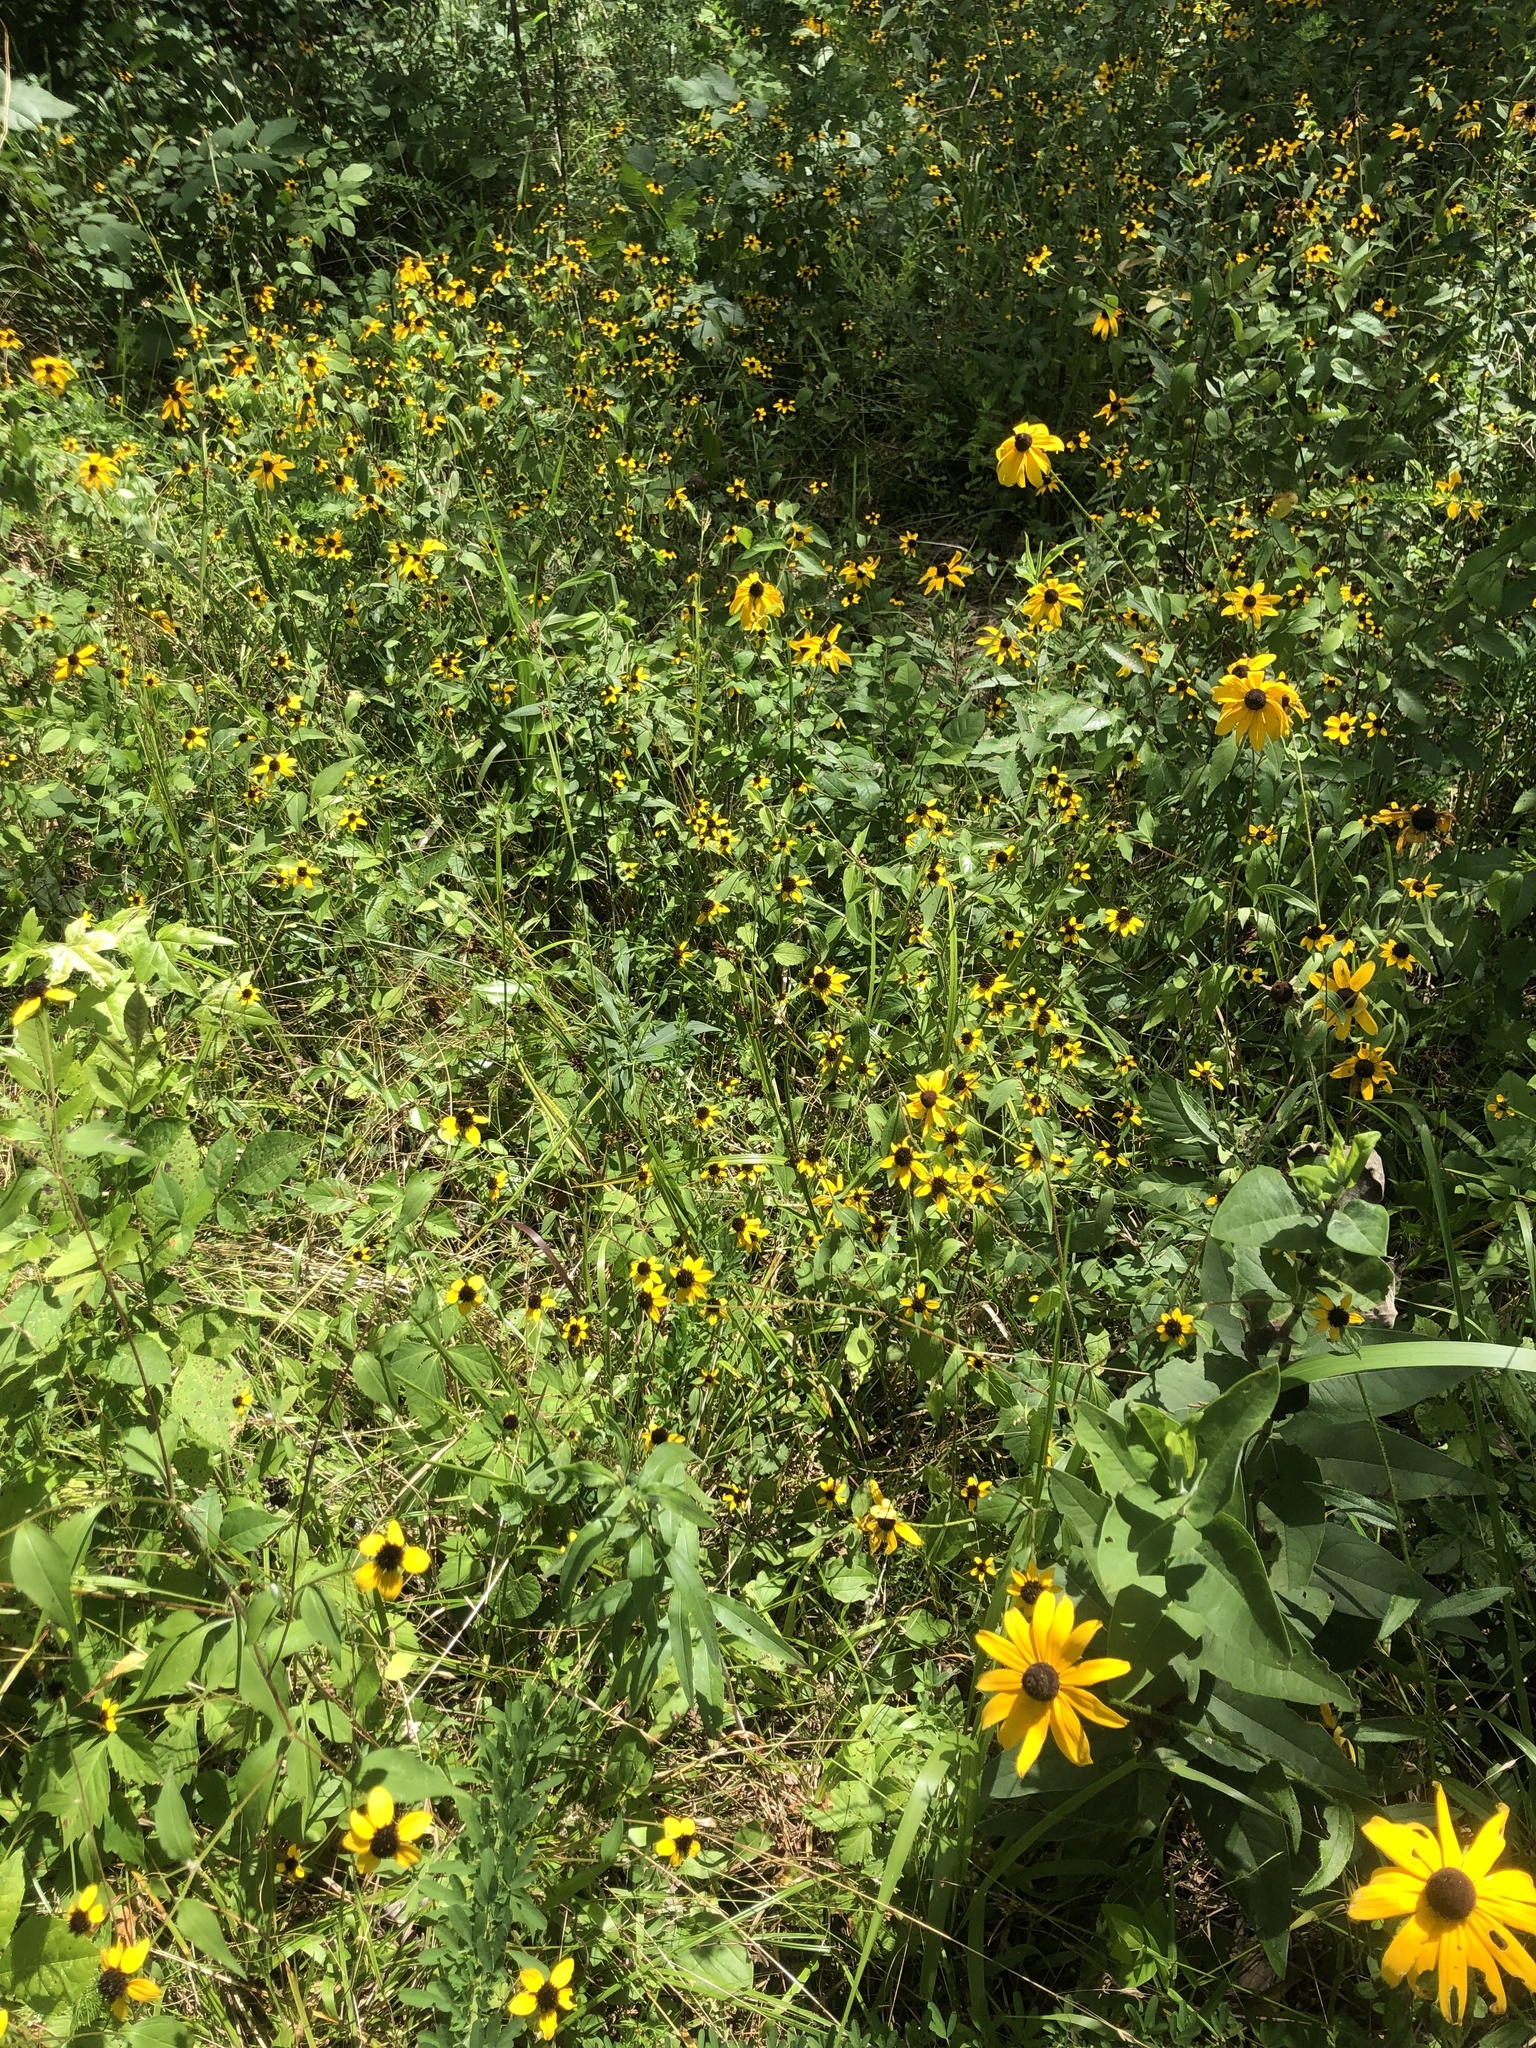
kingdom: Plantae
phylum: Tracheophyta
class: Magnoliopsida
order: Asterales
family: Asteraceae
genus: Rudbeckia
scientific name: Rudbeckia triloba
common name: Thin-leaved coneflower
